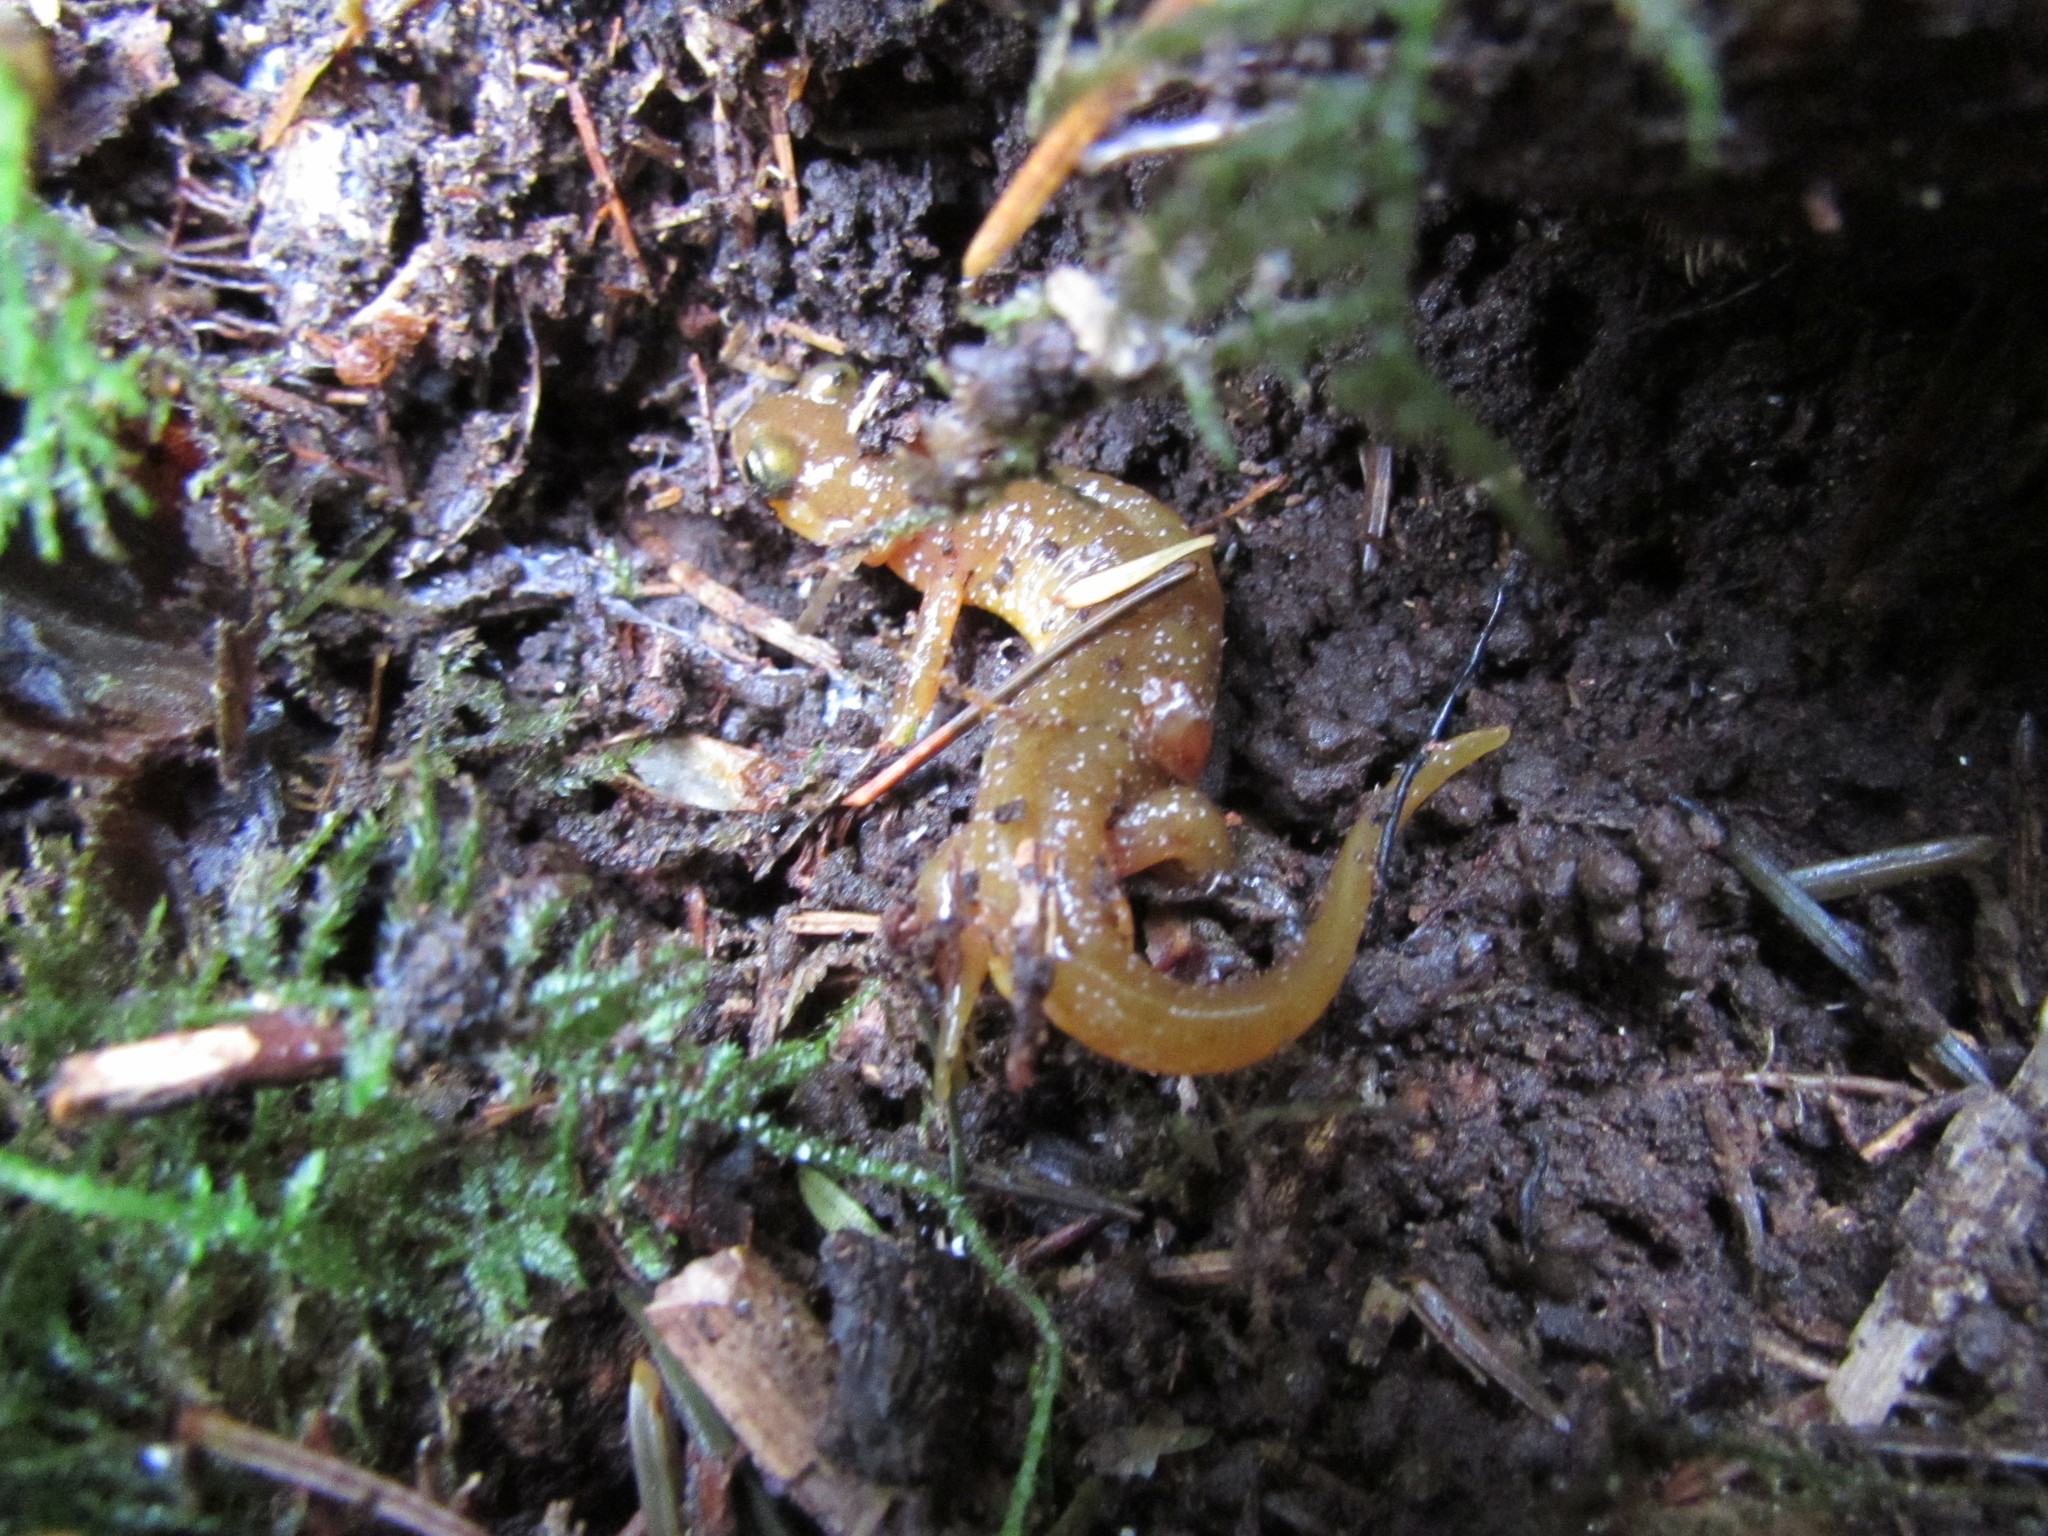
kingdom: Animalia
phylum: Chordata
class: Amphibia
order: Caudata
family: Rhyacotritonidae
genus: Rhyacotriton
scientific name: Rhyacotriton variegatus
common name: Southern torrent salamander
